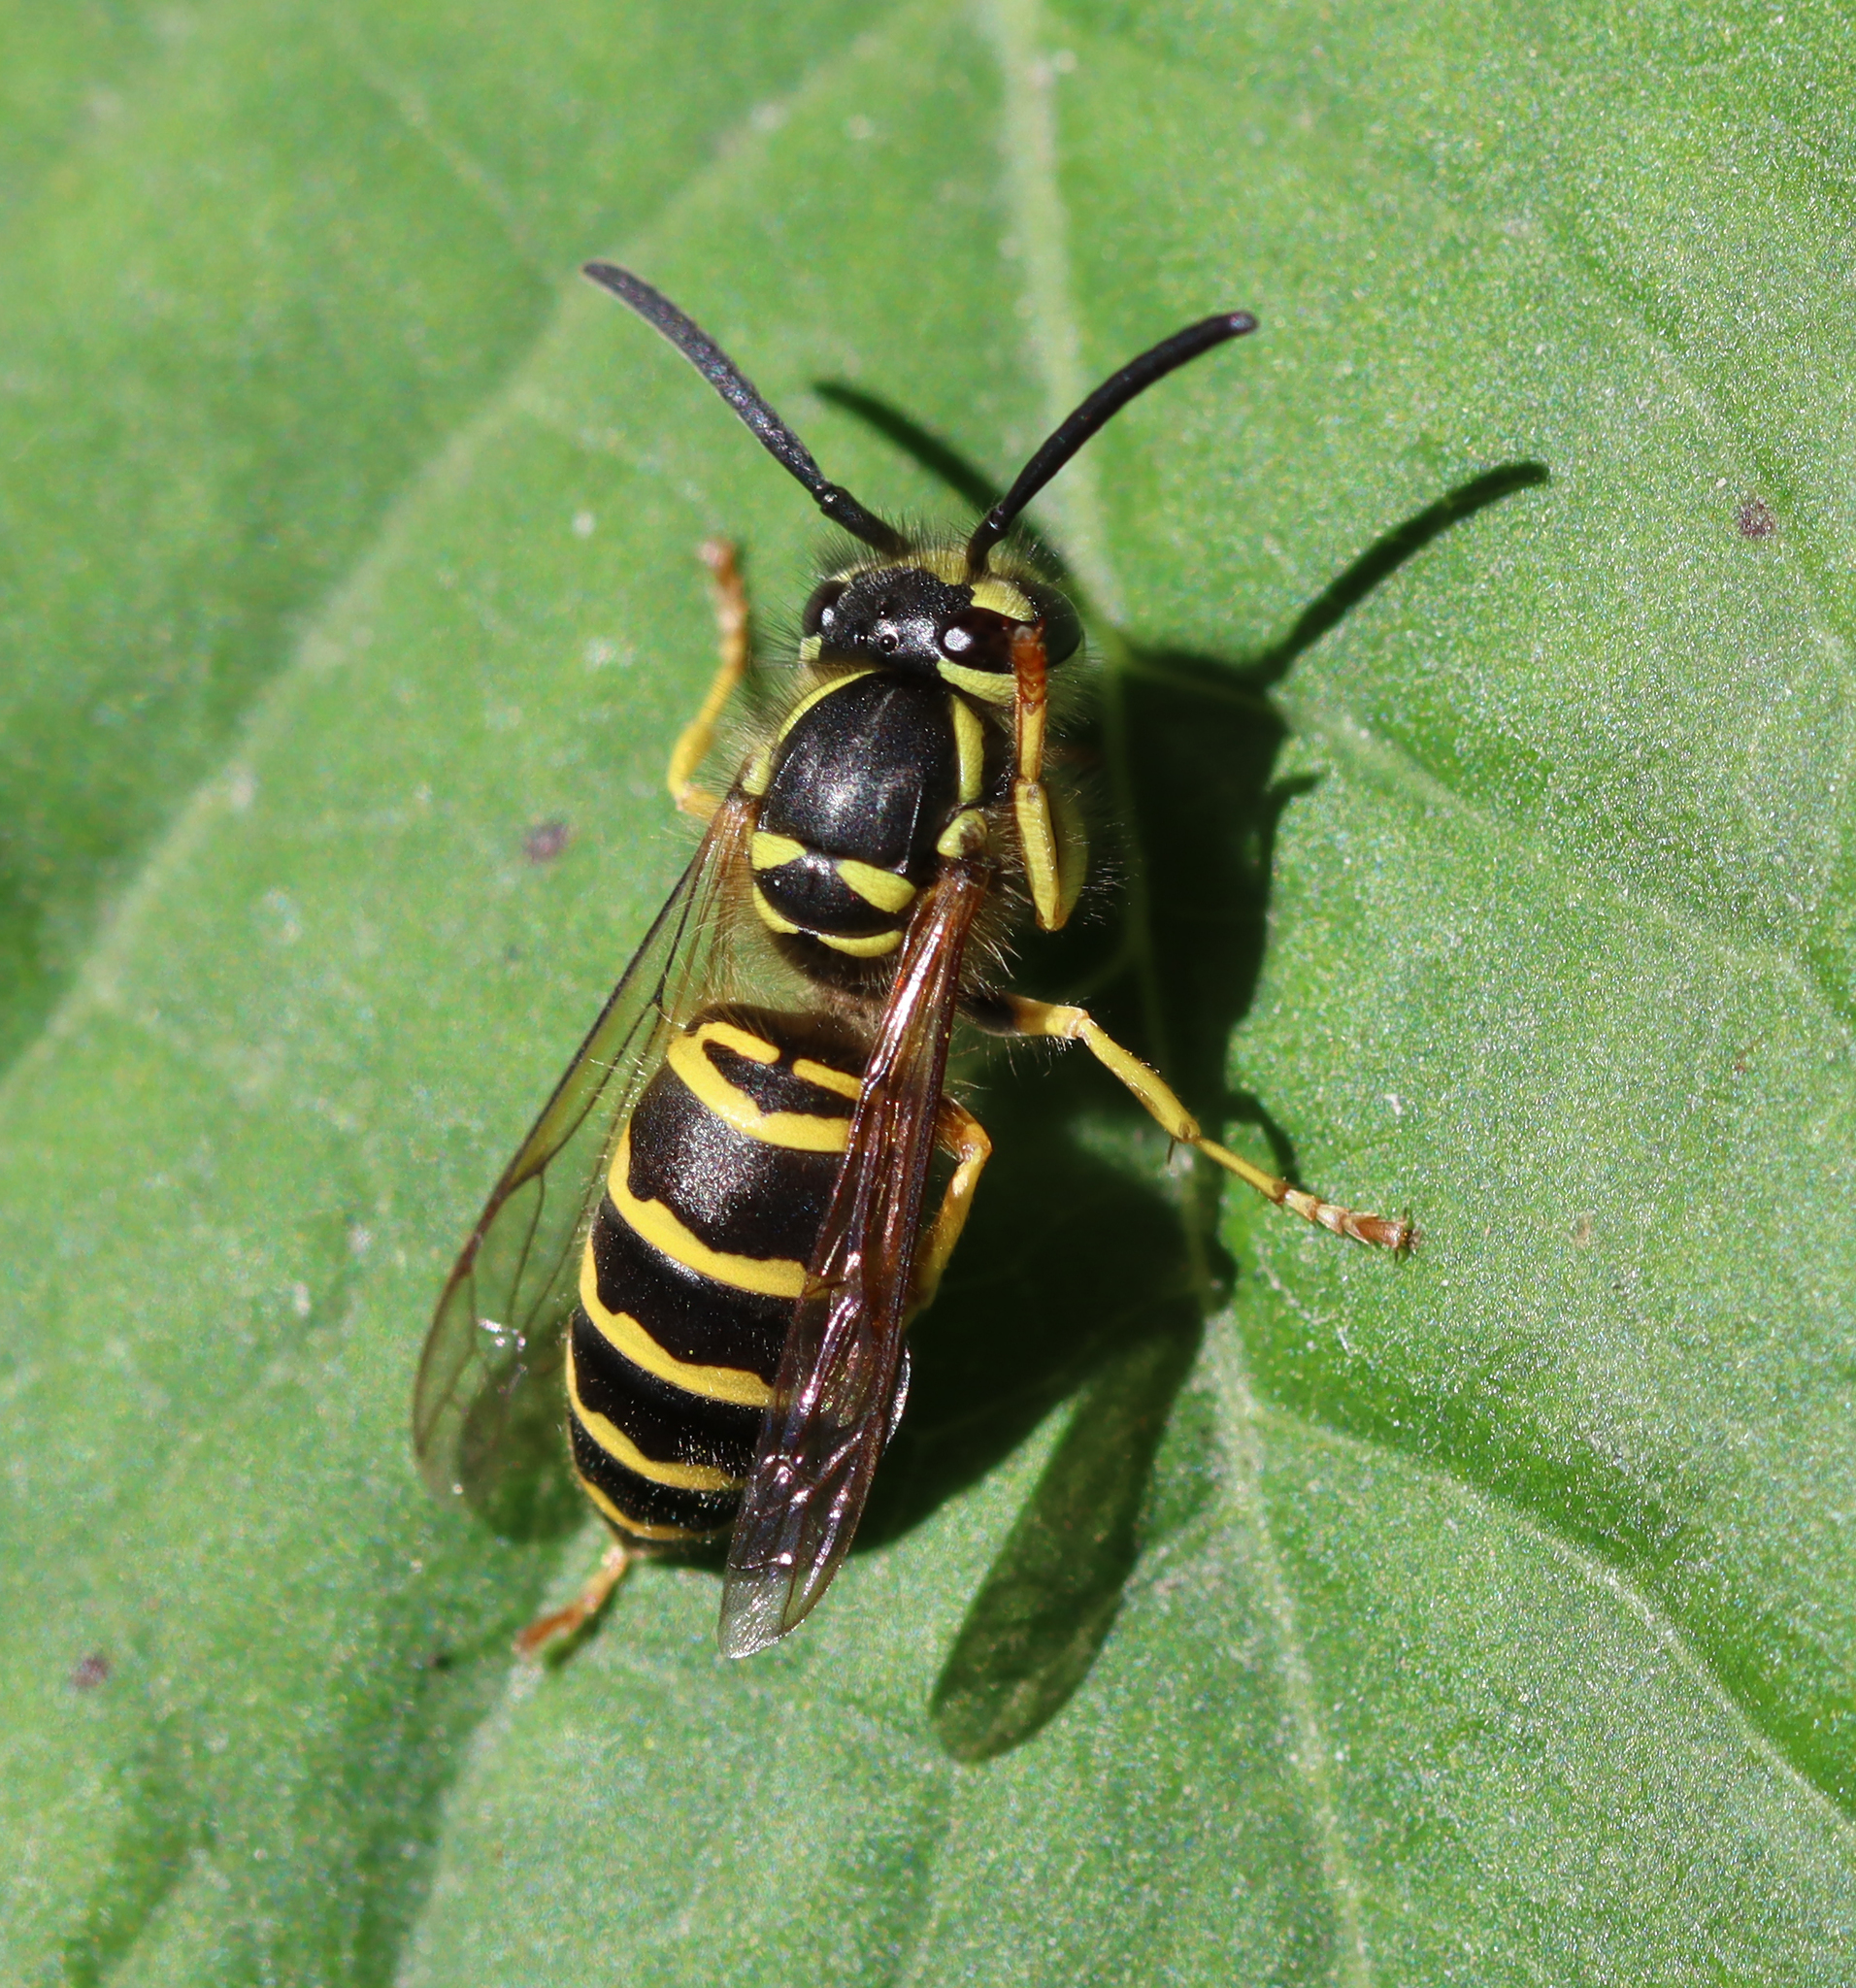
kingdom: Animalia
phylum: Arthropoda
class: Insecta
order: Hymenoptera
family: Vespidae
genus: Vespula
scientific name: Vespula maculifrons
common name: Eastern yellowjacket
